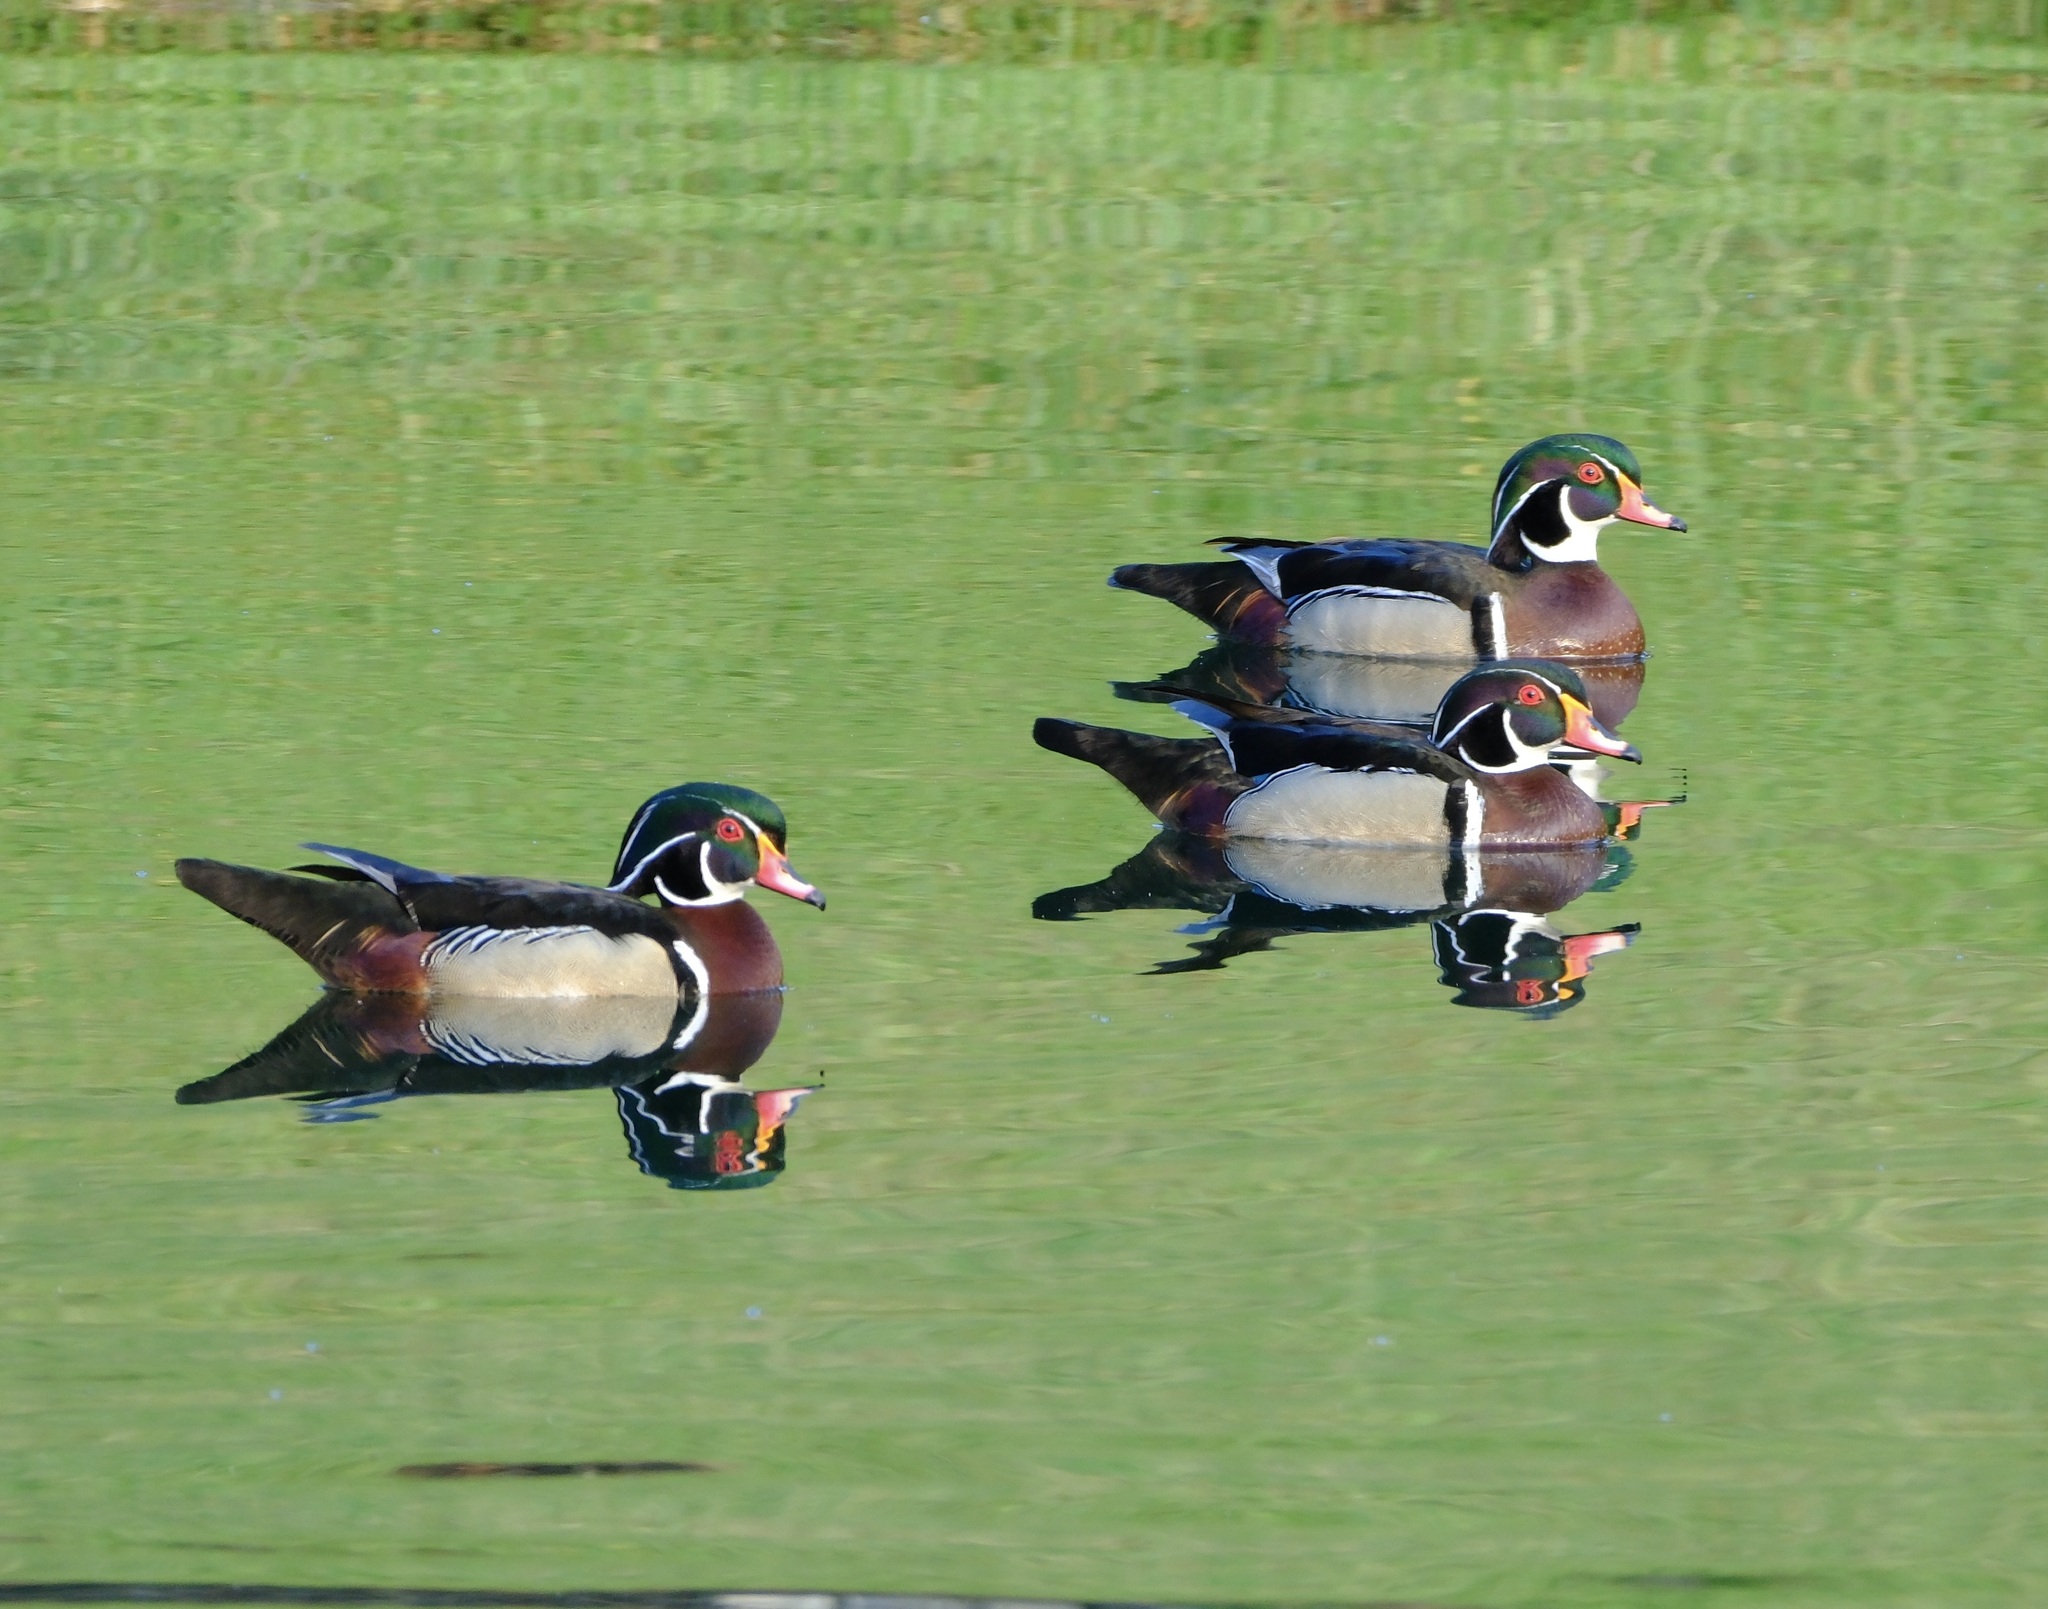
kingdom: Animalia
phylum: Chordata
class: Aves
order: Anseriformes
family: Anatidae
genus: Aix
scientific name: Aix sponsa
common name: Wood duck
